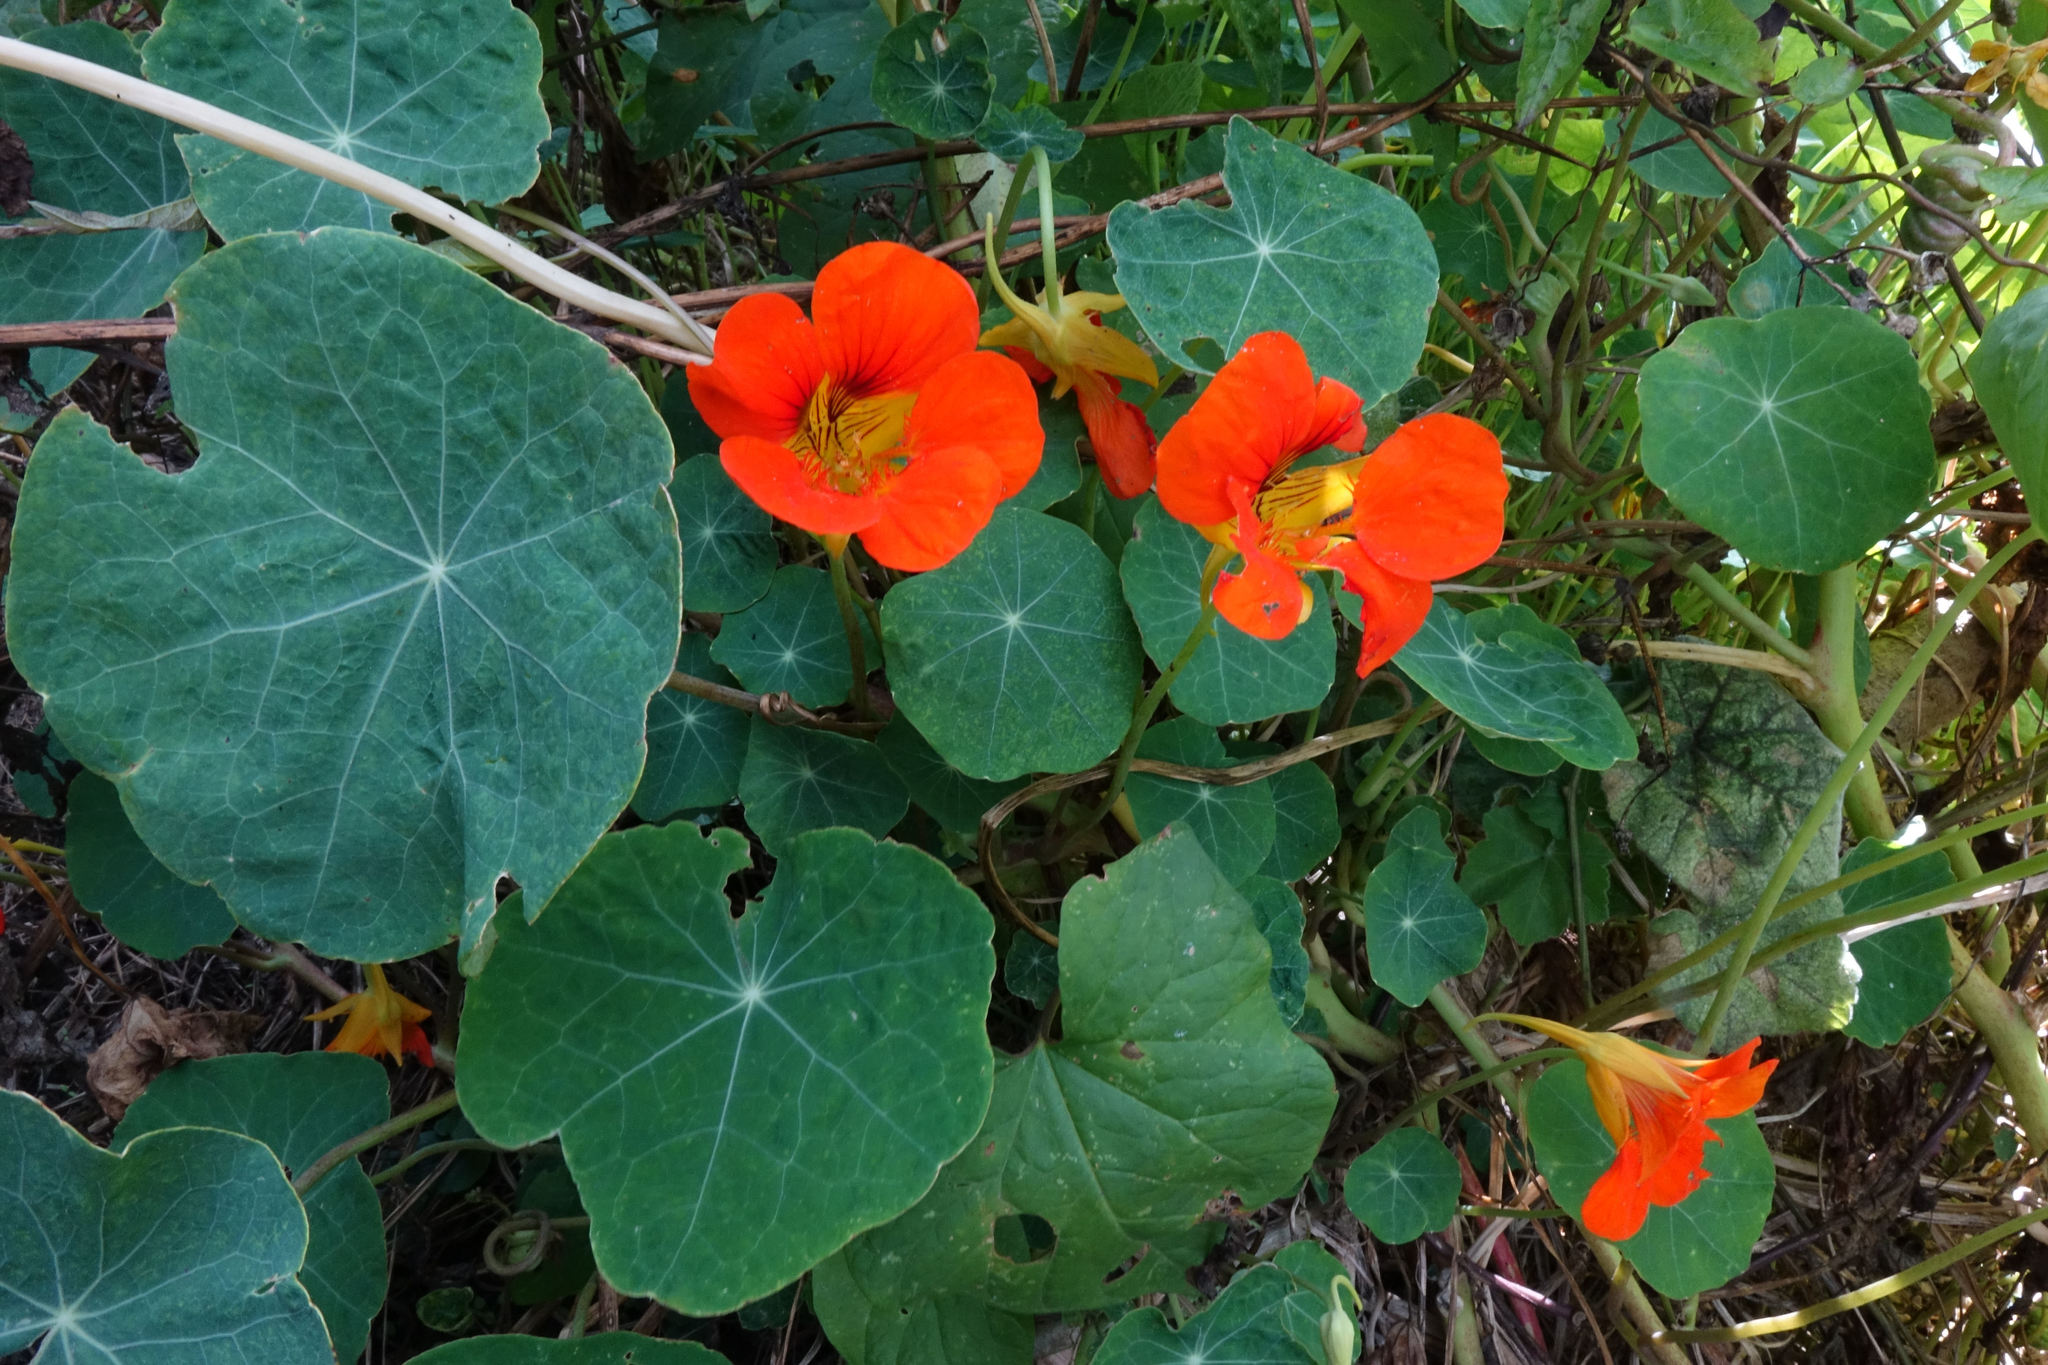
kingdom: Plantae
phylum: Tracheophyta
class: Magnoliopsida
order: Brassicales
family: Tropaeolaceae
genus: Tropaeolum
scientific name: Tropaeolum majus
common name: Nasturtium
